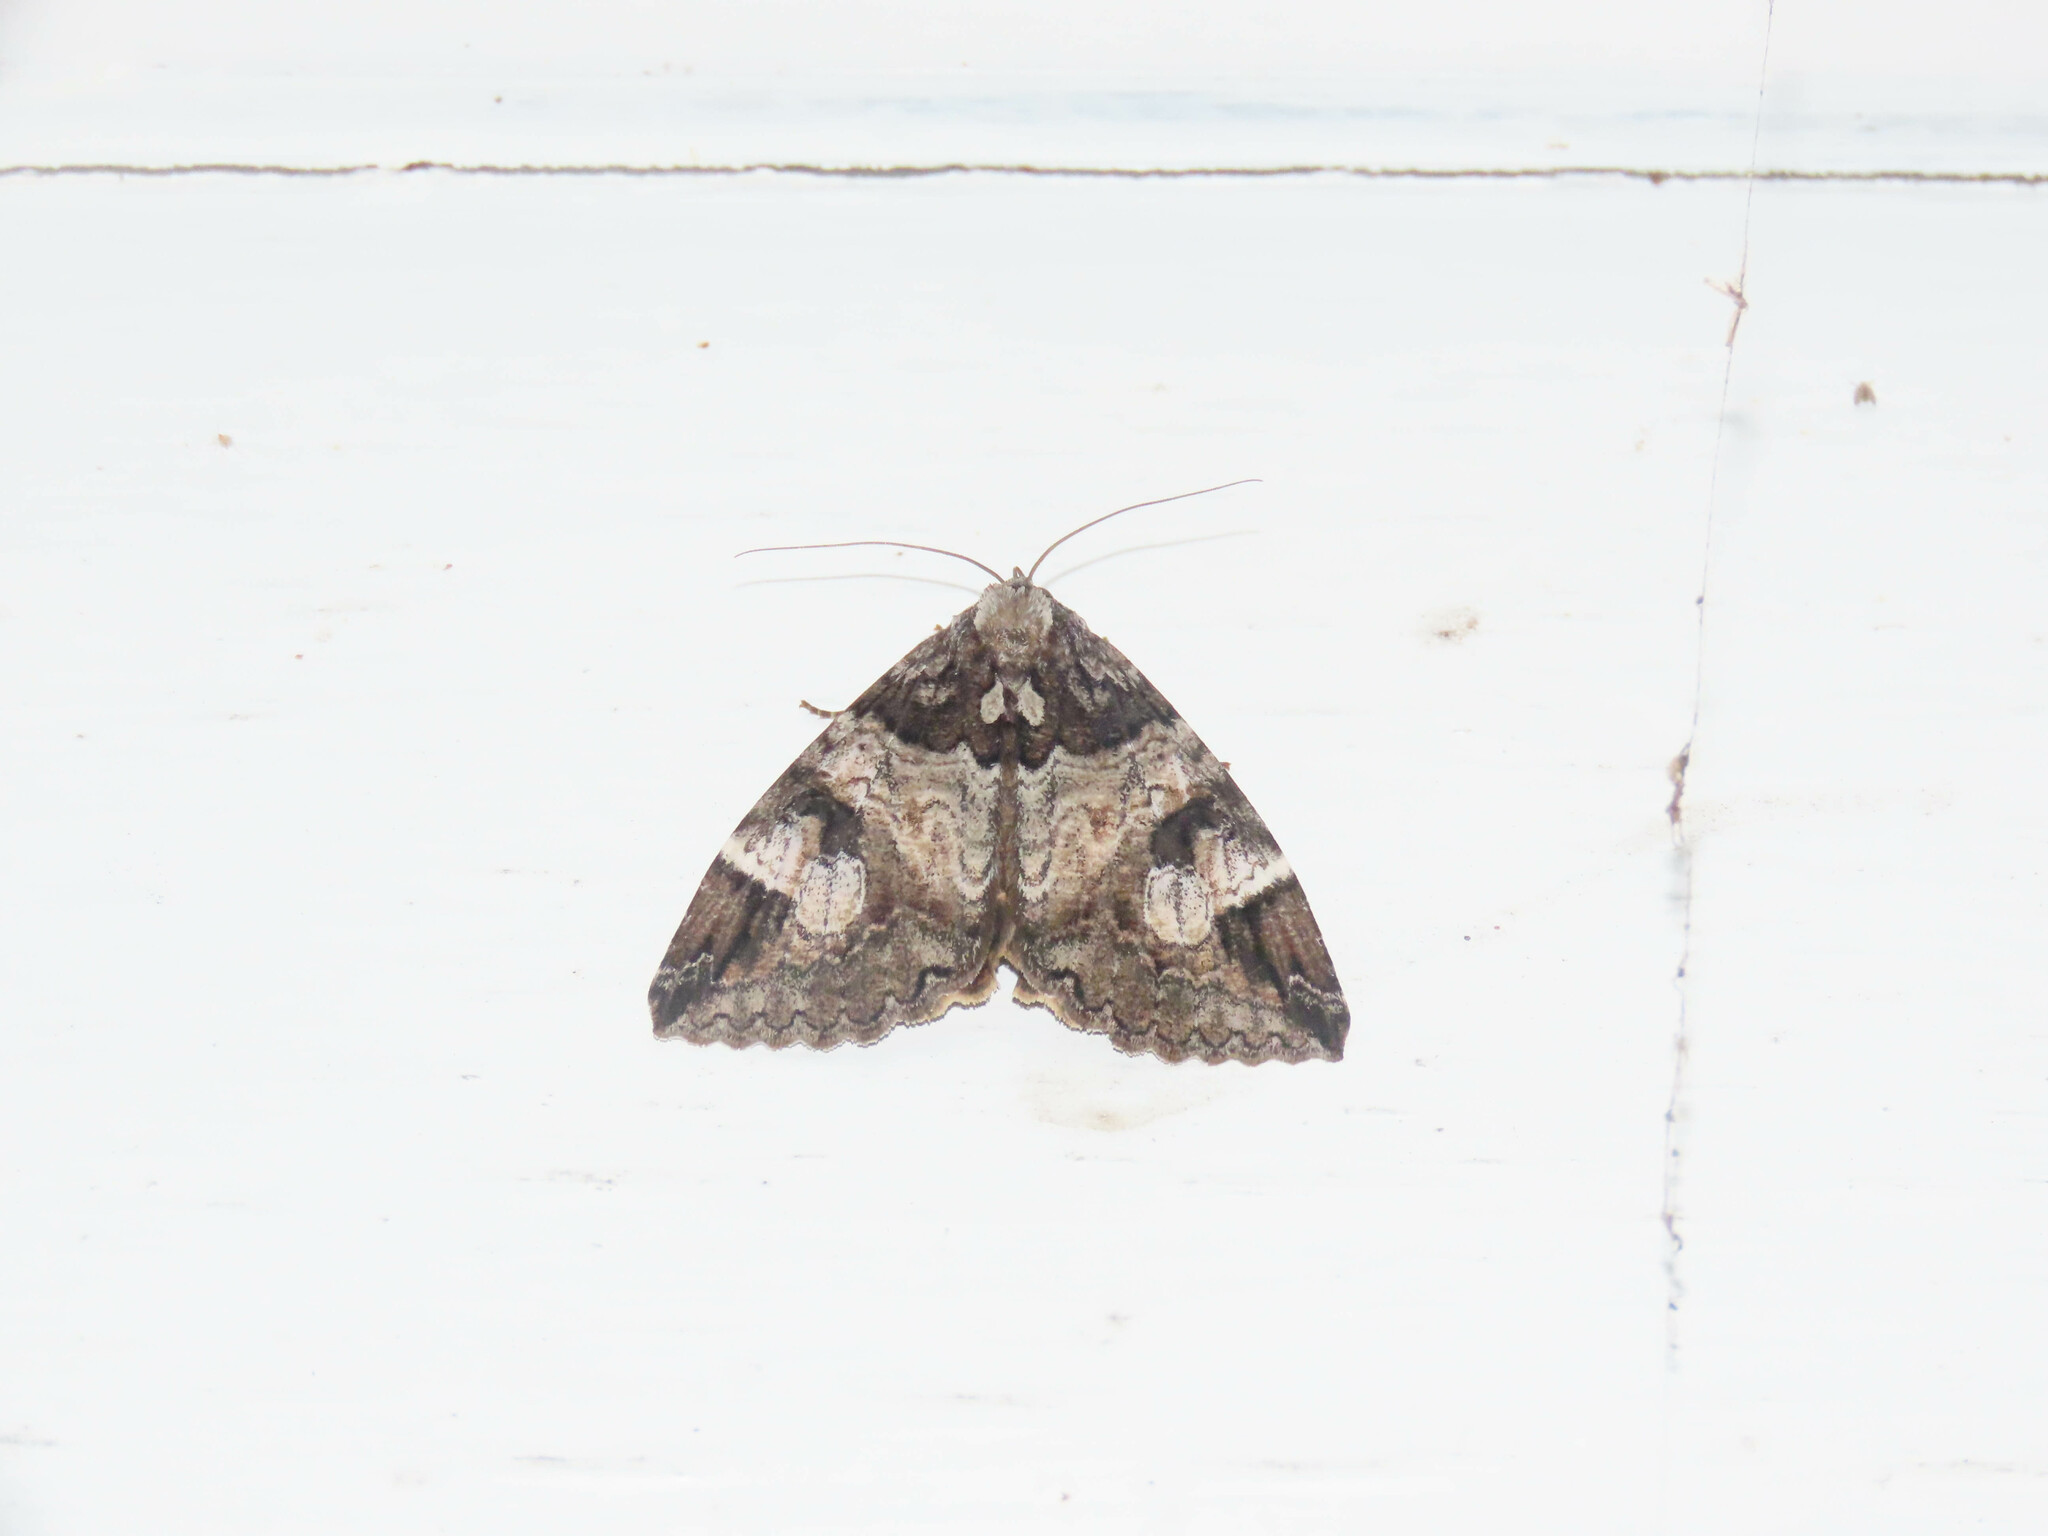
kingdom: Animalia
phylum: Arthropoda
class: Insecta
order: Lepidoptera
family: Erebidae
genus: Euparthenos
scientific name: Euparthenos nubilis
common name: Locust underwing
